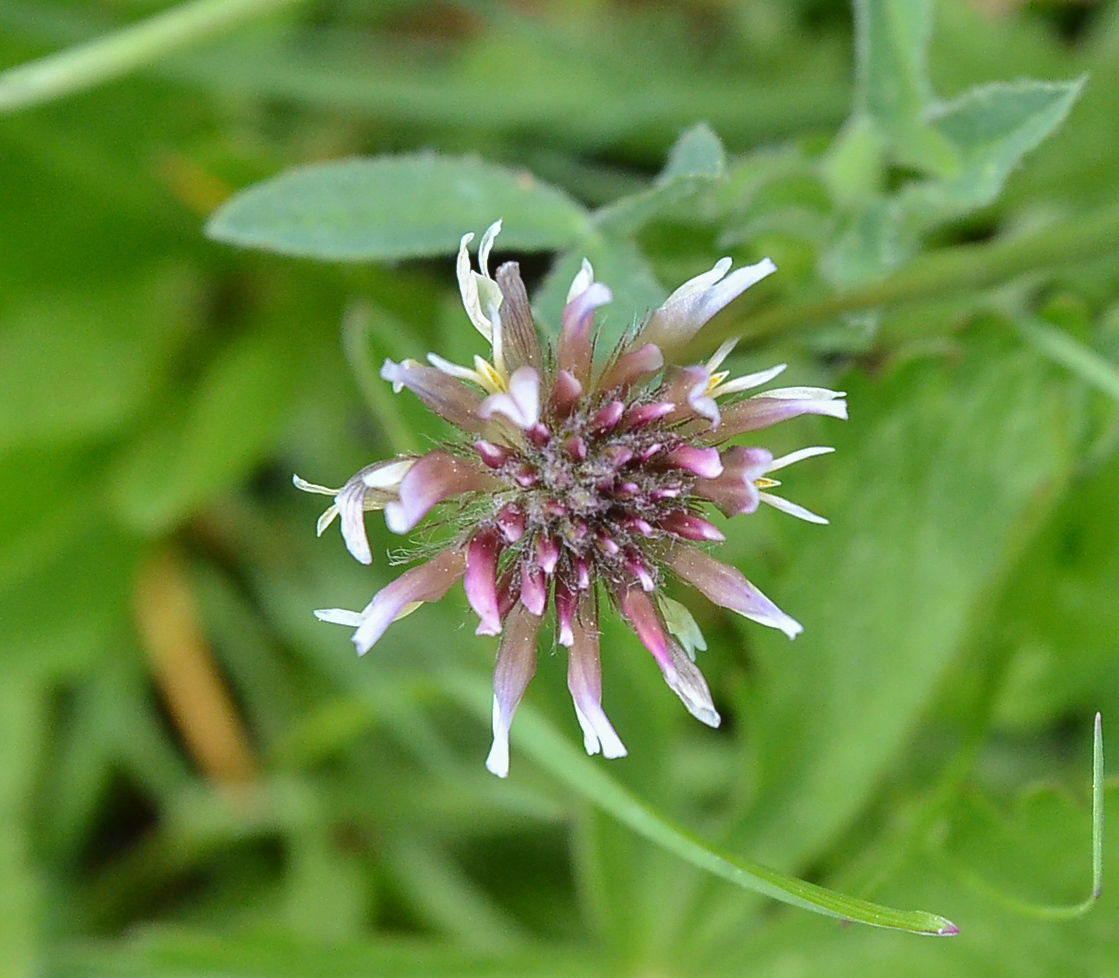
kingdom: Plantae
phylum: Tracheophyta
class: Magnoliopsida
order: Fabales
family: Fabaceae
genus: Trifolium
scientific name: Trifolium longipes
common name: Long-stalk clover
